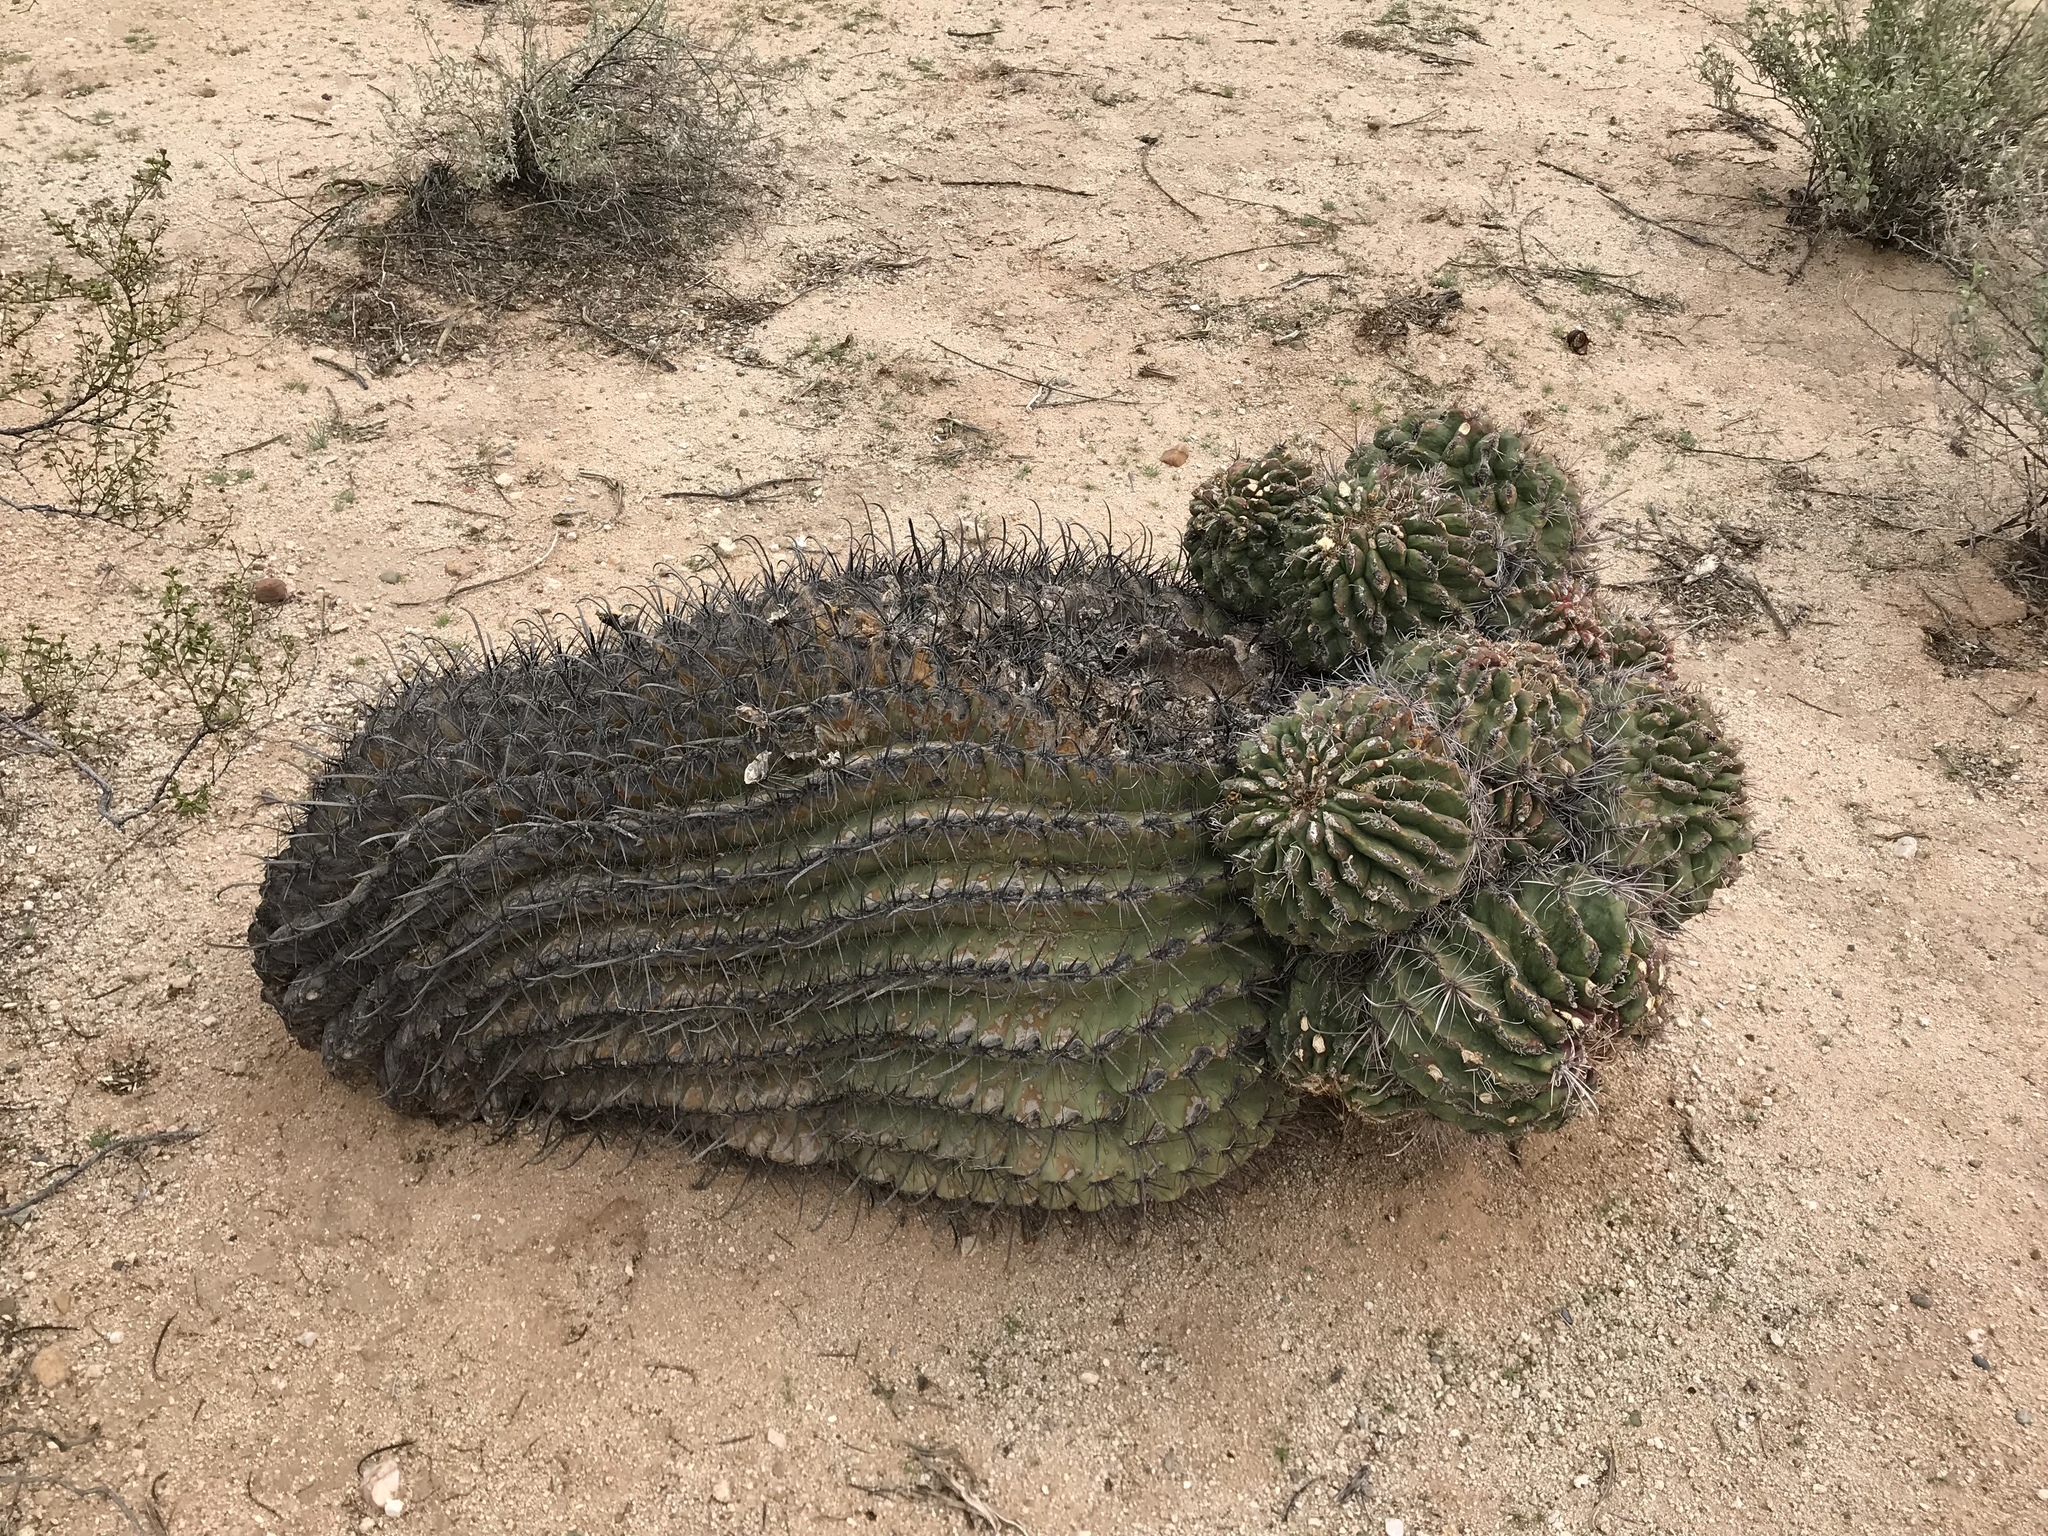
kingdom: Plantae
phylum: Tracheophyta
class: Magnoliopsida
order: Caryophyllales
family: Cactaceae
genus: Ferocactus
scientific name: Ferocactus wislizeni
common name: Candy barrel cactus
